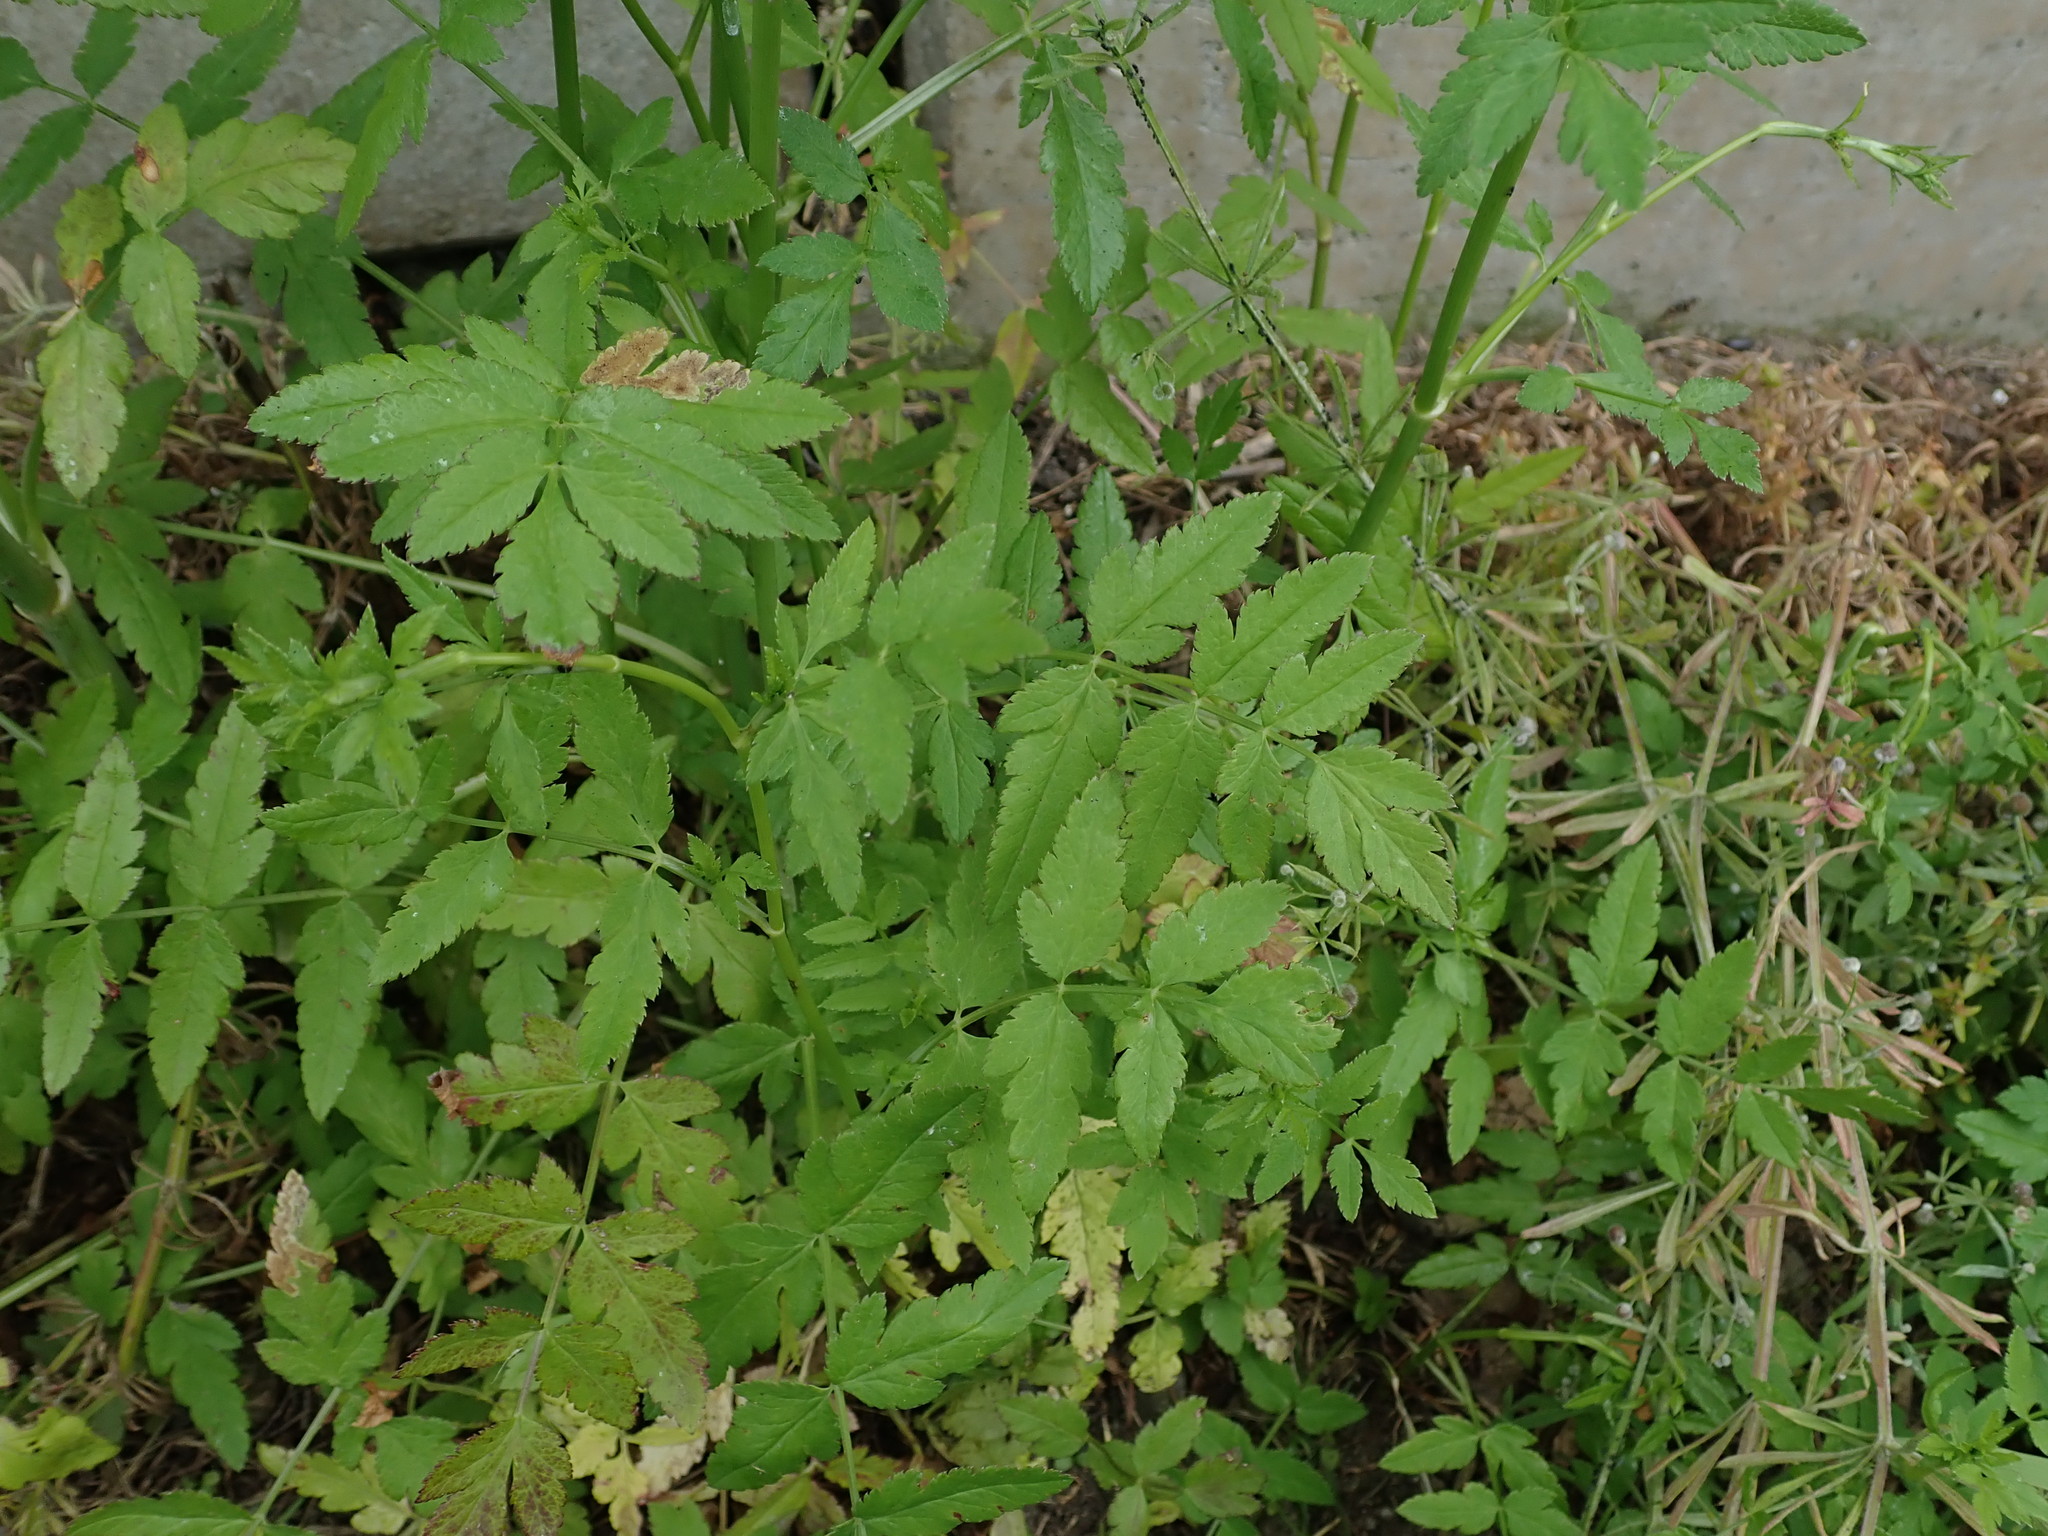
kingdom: Plantae
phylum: Tracheophyta
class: Magnoliopsida
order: Apiales
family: Apiaceae
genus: Sison
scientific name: Sison amomum
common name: Stone-parsley
